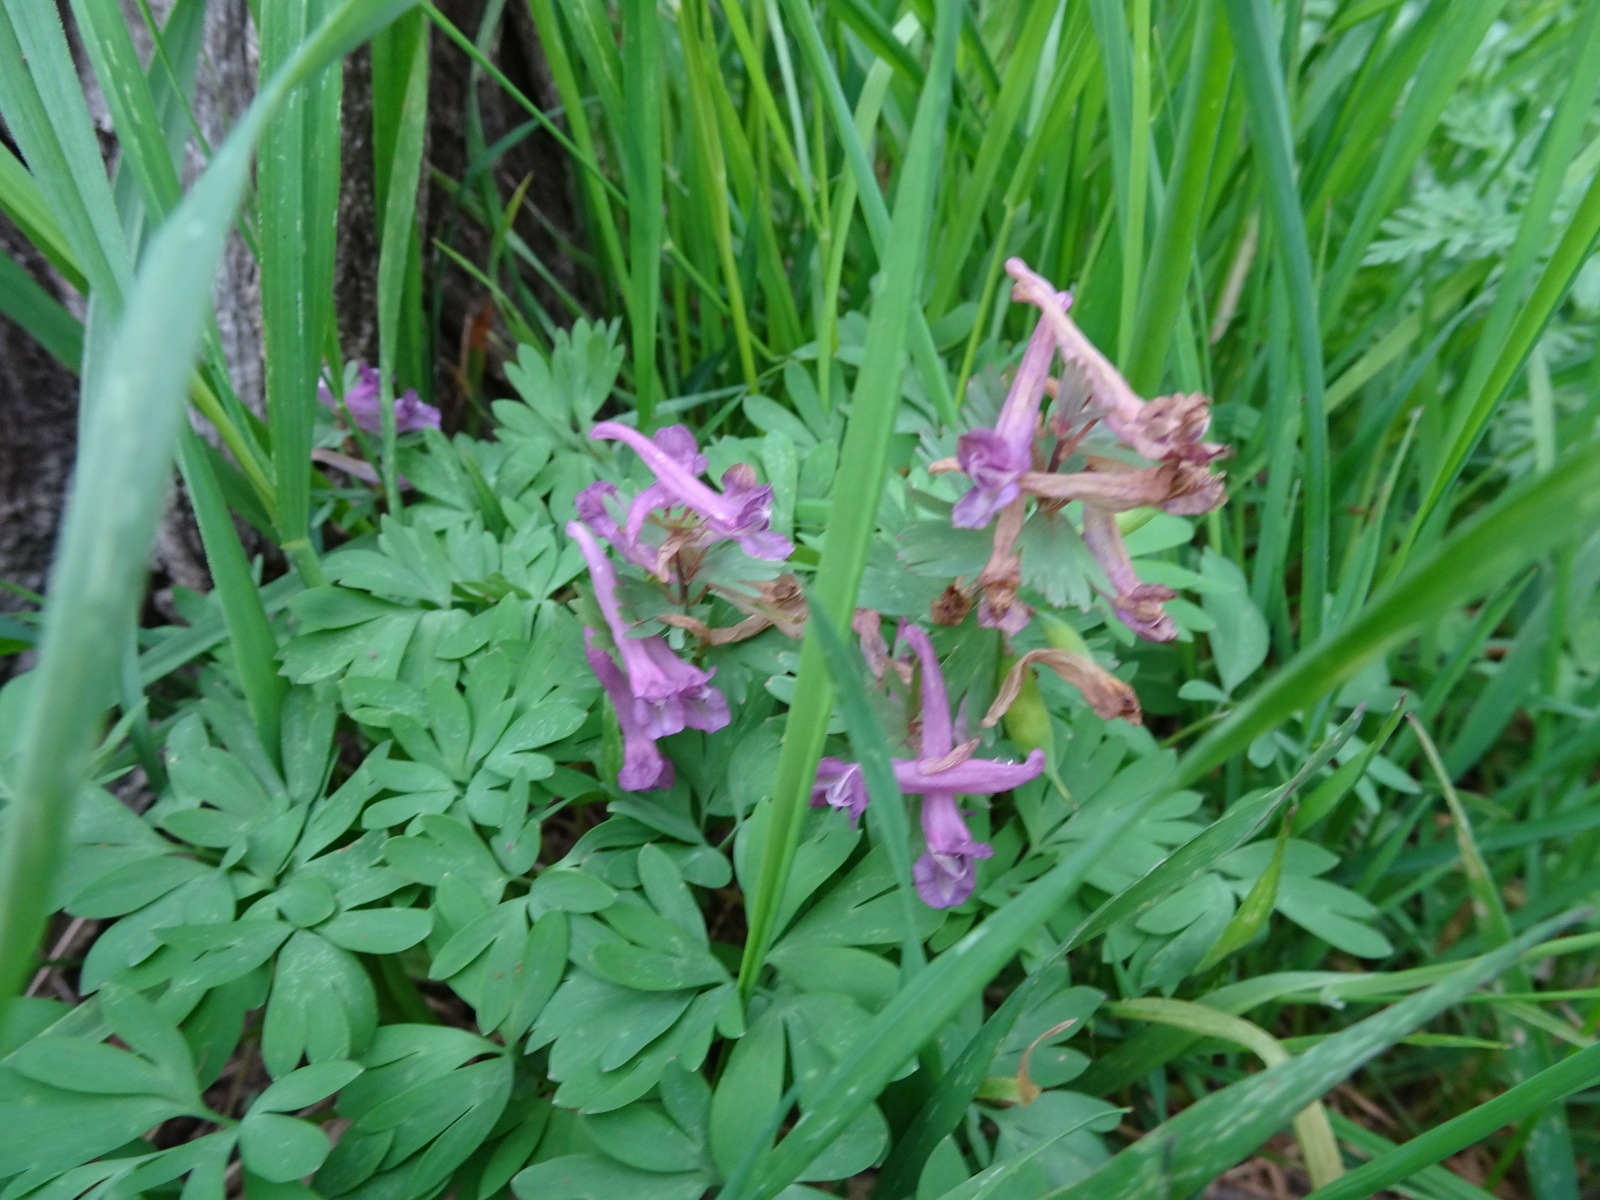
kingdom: Plantae
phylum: Tracheophyta
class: Magnoliopsida
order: Ranunculales
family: Papaveraceae
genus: Corydalis
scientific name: Corydalis solida
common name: Bird-in-a-bush
